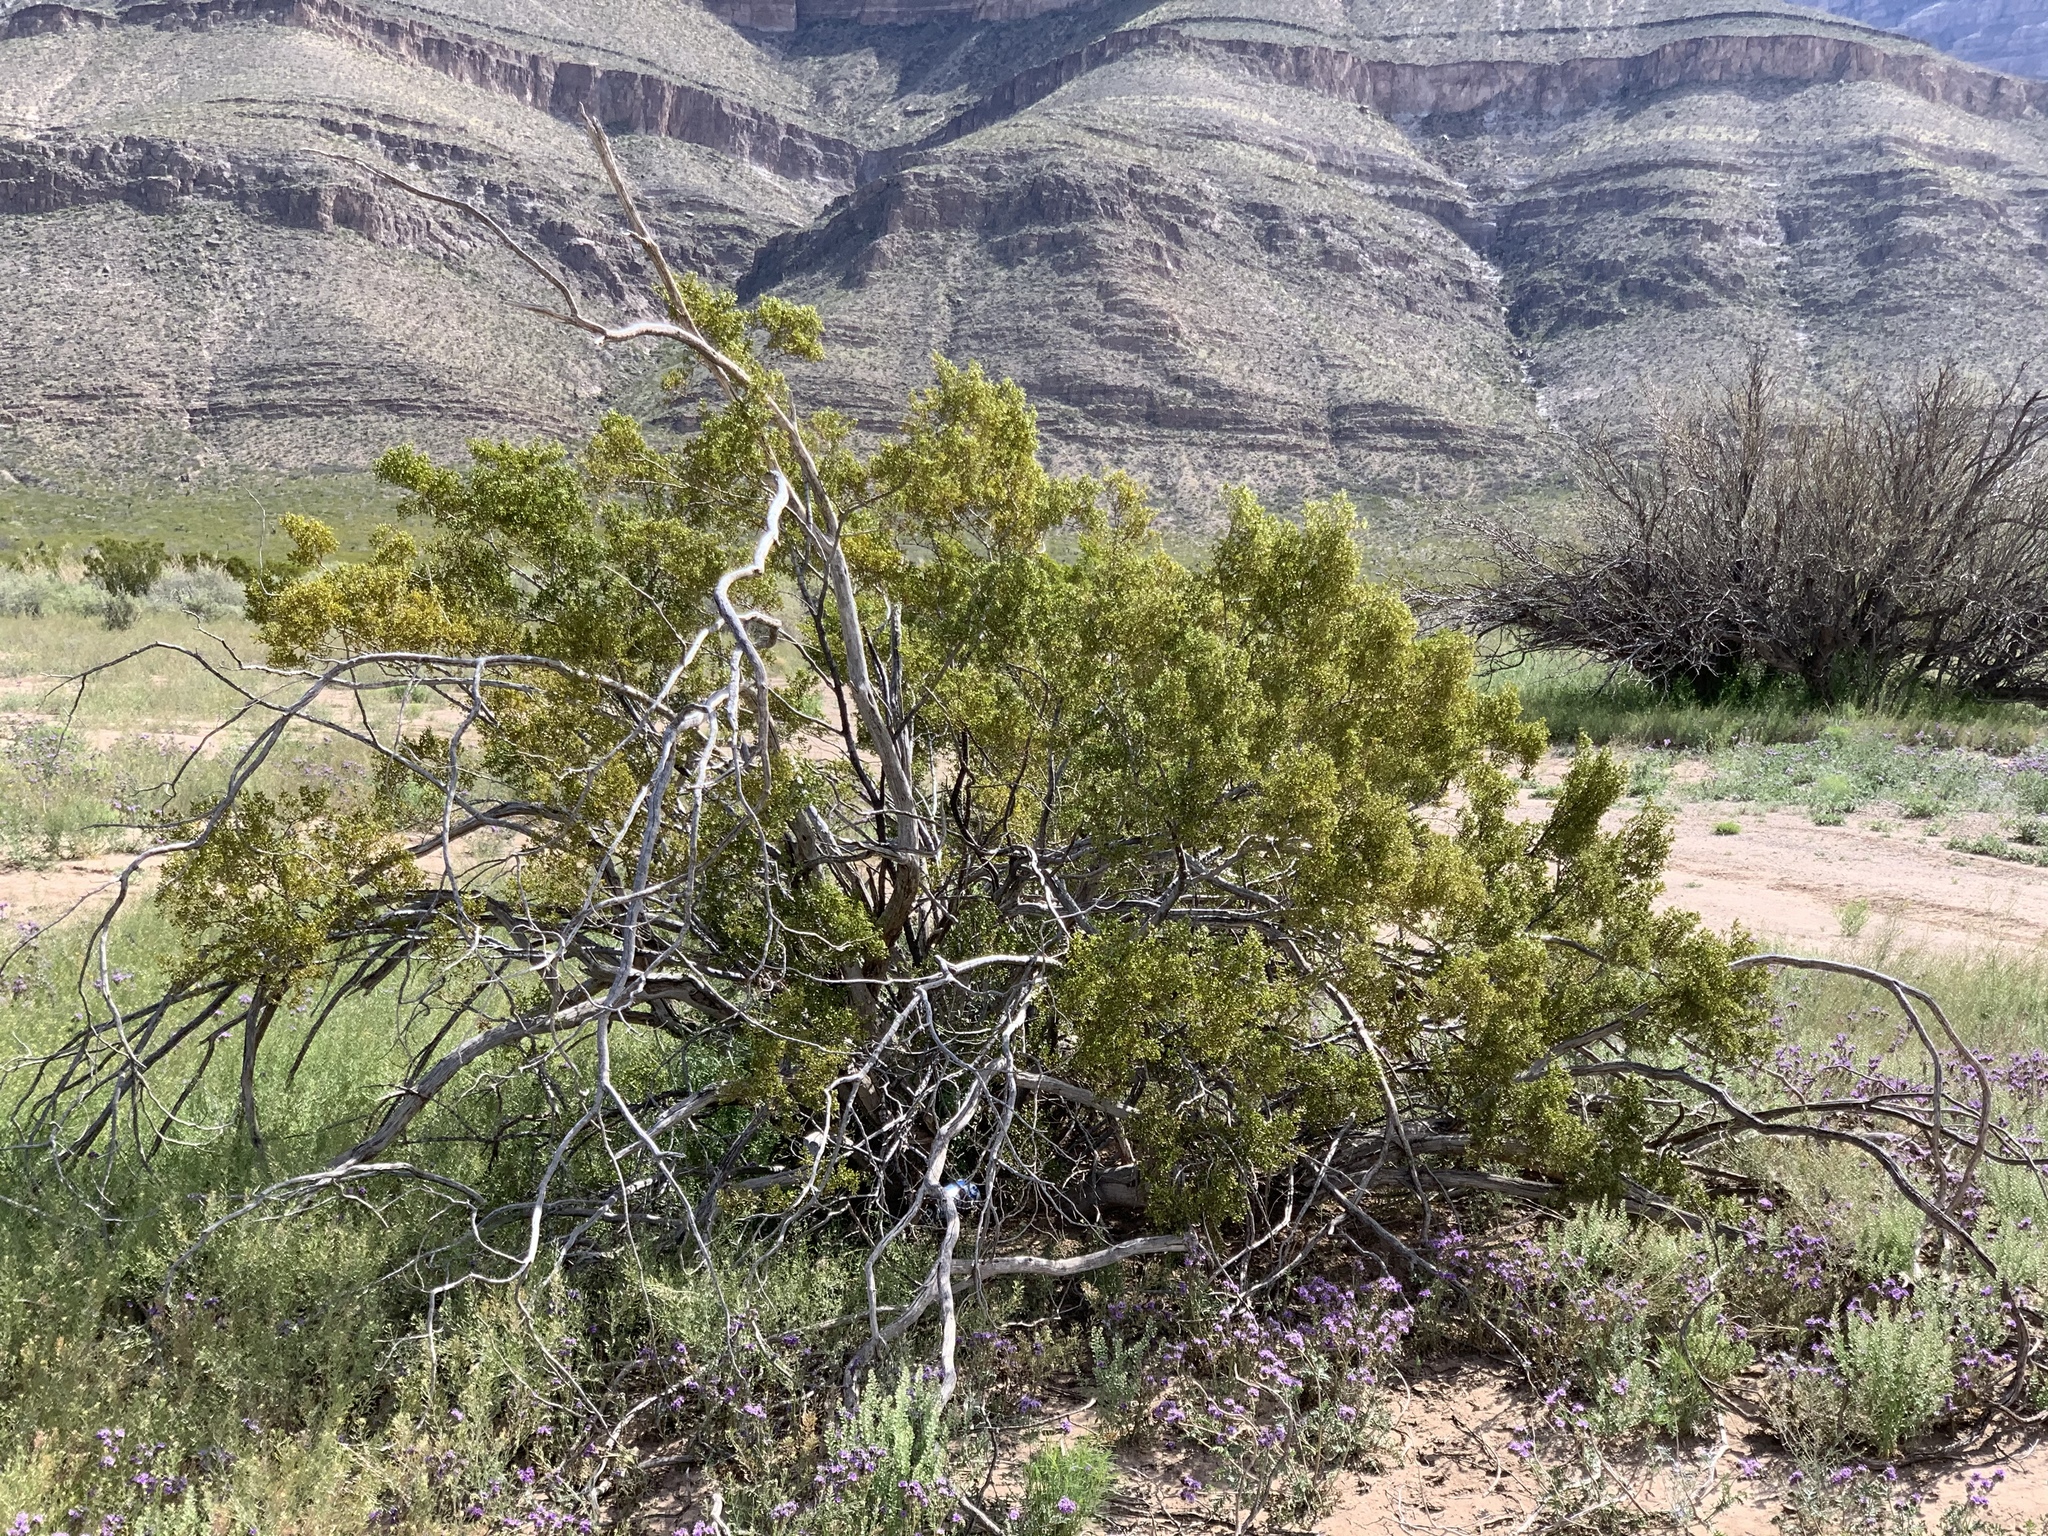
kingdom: Plantae
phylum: Tracheophyta
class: Magnoliopsida
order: Zygophyllales
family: Zygophyllaceae
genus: Larrea
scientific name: Larrea tridentata
